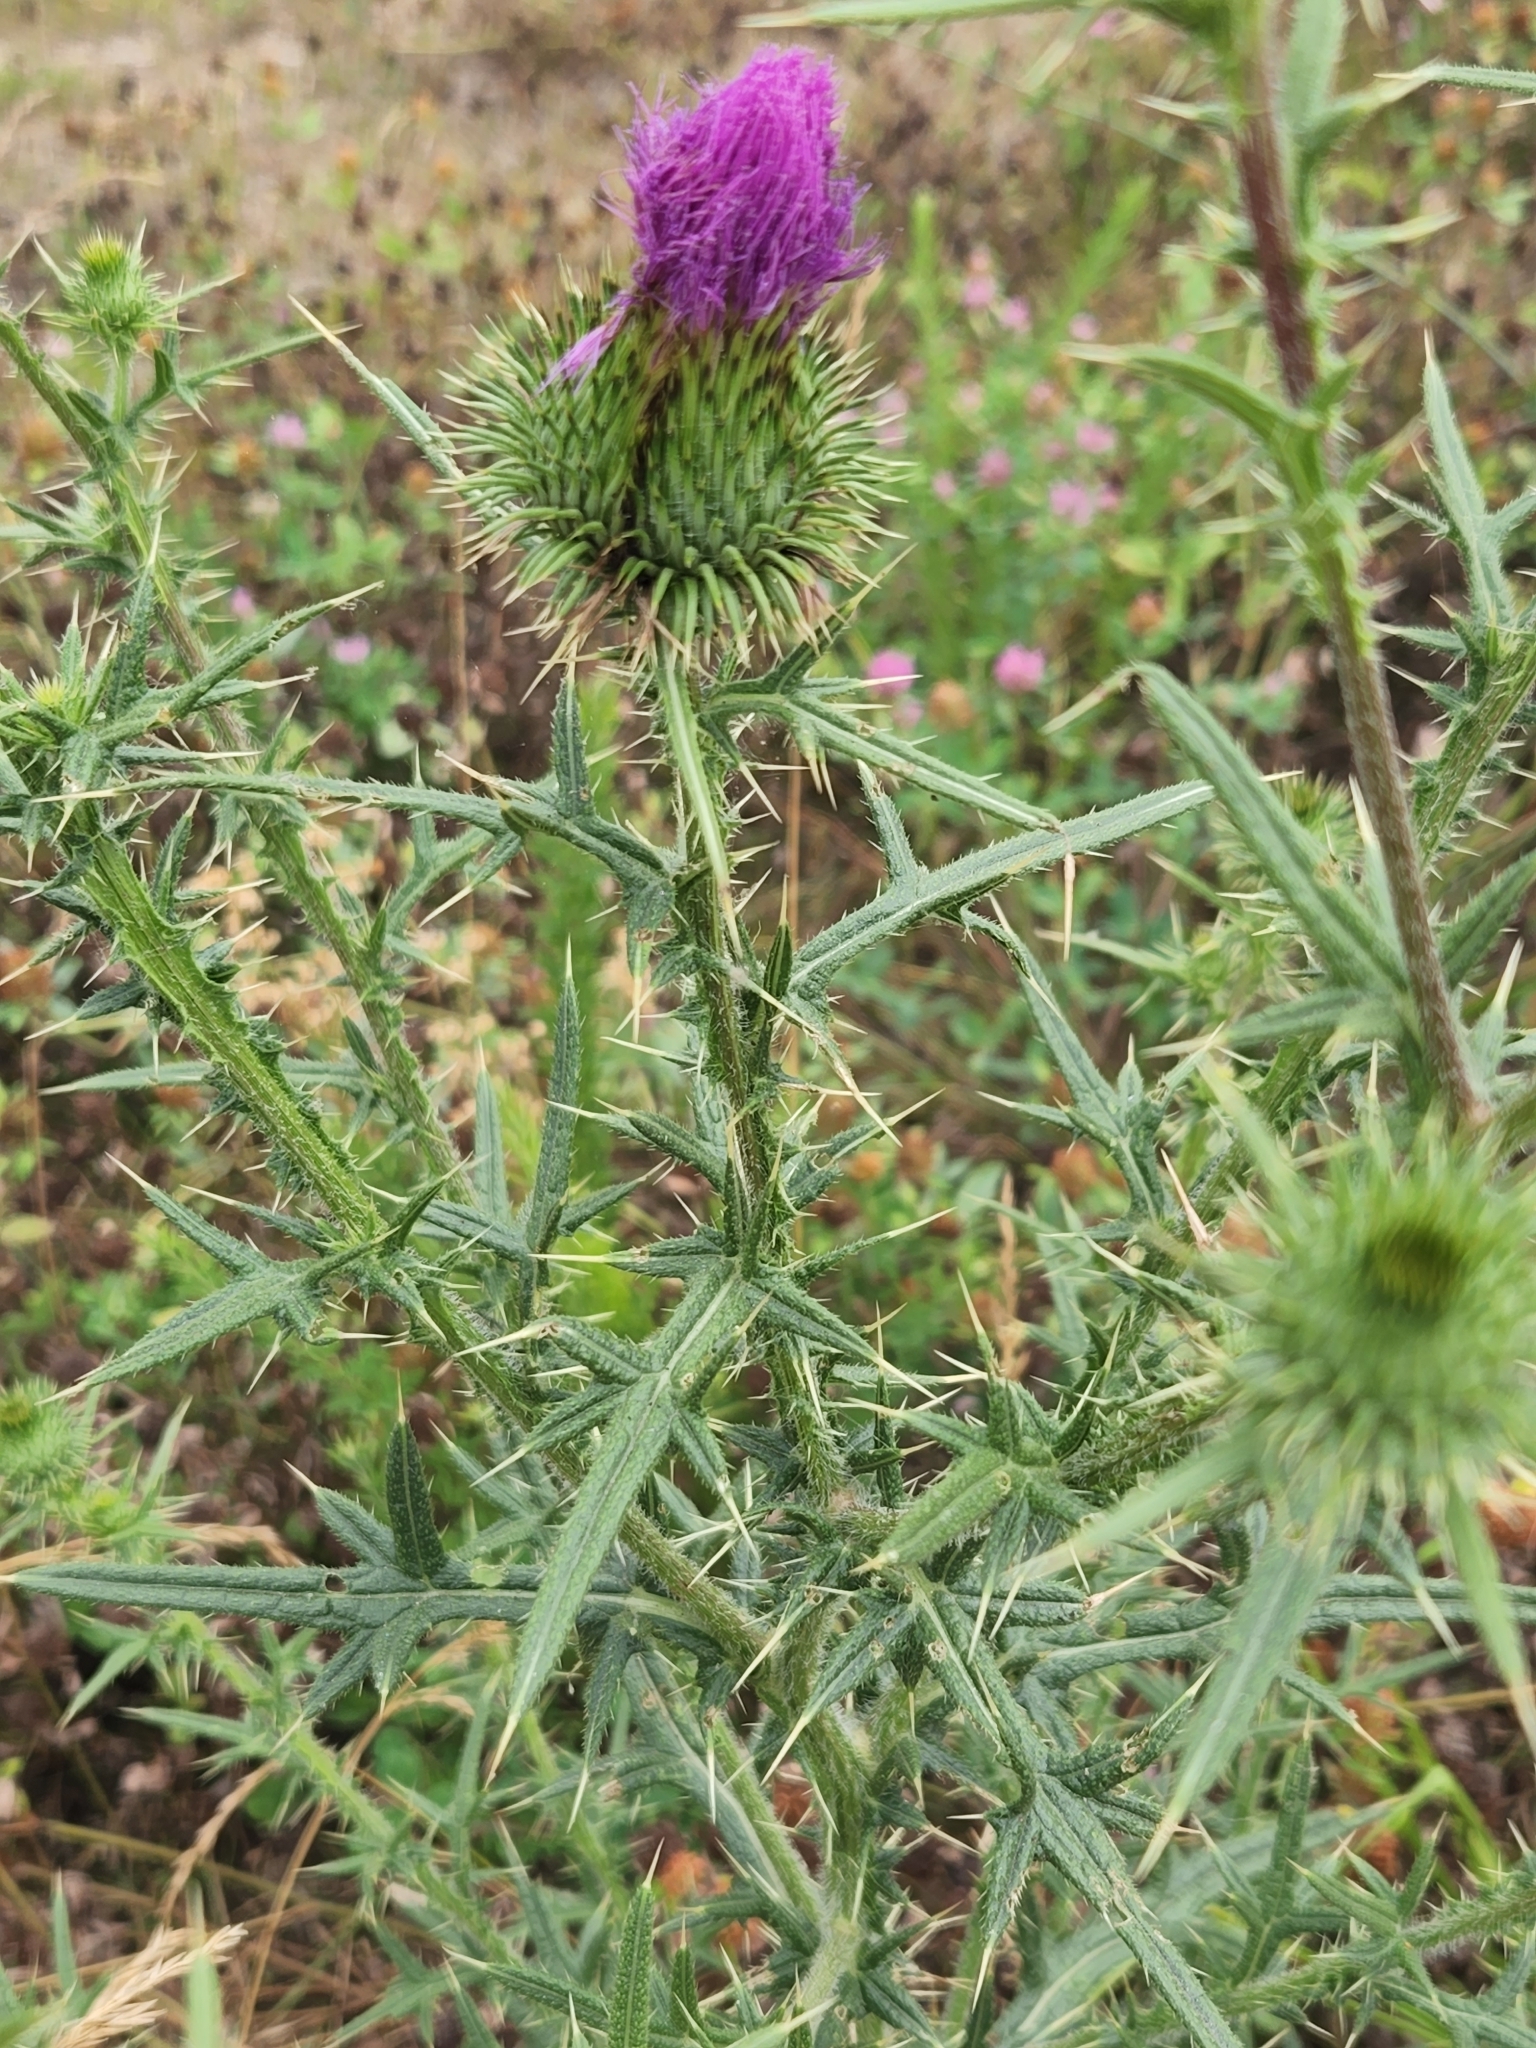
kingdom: Plantae
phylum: Tracheophyta
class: Magnoliopsida
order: Asterales
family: Asteraceae
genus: Cirsium
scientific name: Cirsium vulgare
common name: Bull thistle
